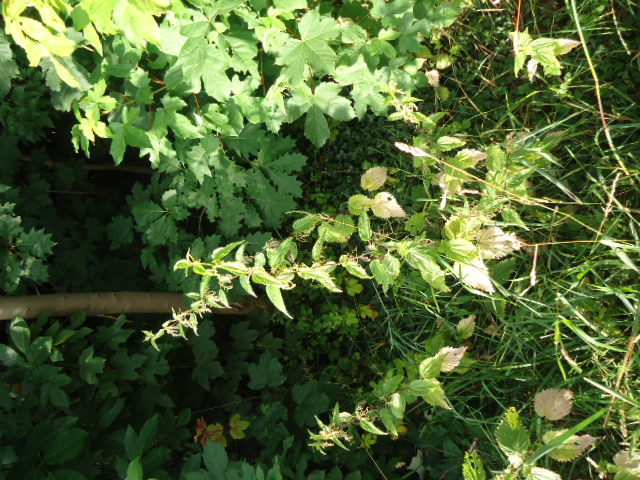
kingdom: Plantae
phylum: Tracheophyta
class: Magnoliopsida
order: Rosales
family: Urticaceae
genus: Urtica
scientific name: Urtica dioica
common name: Common nettle
